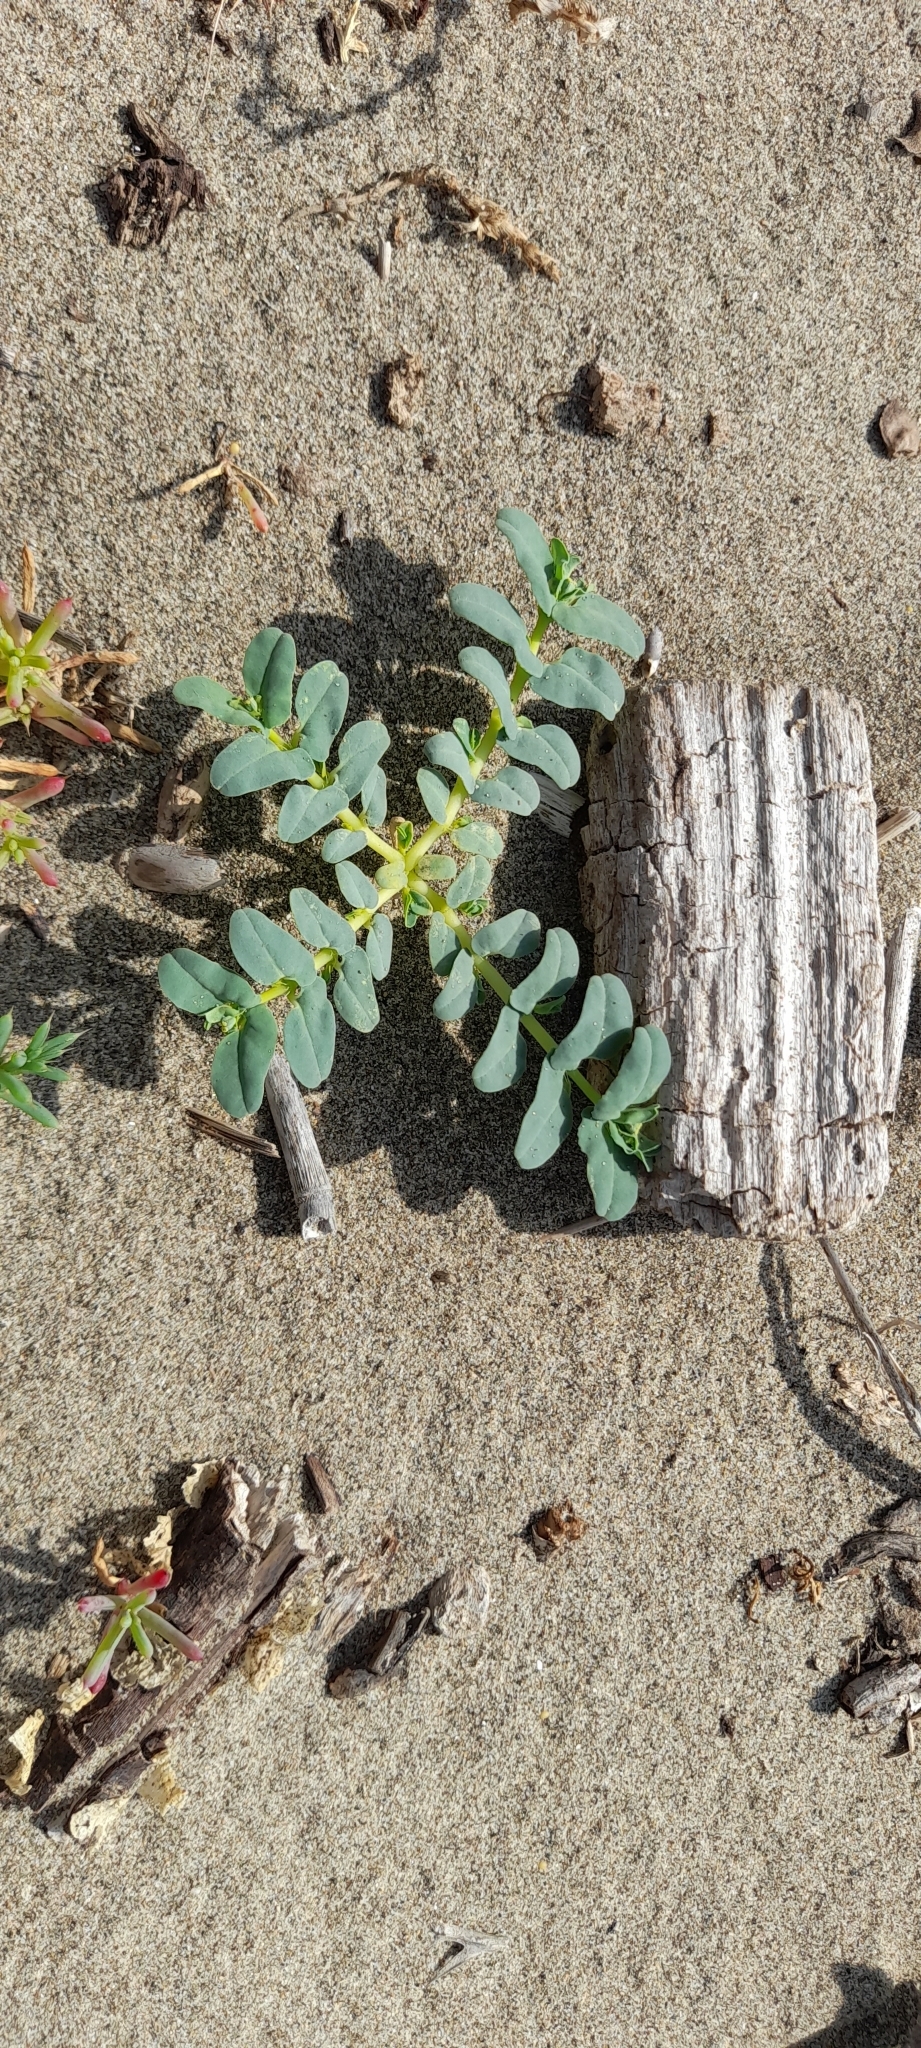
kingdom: Plantae
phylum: Tracheophyta
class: Magnoliopsida
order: Malpighiales
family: Euphorbiaceae
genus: Euphorbia
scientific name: Euphorbia peplis
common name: Purple spurge
